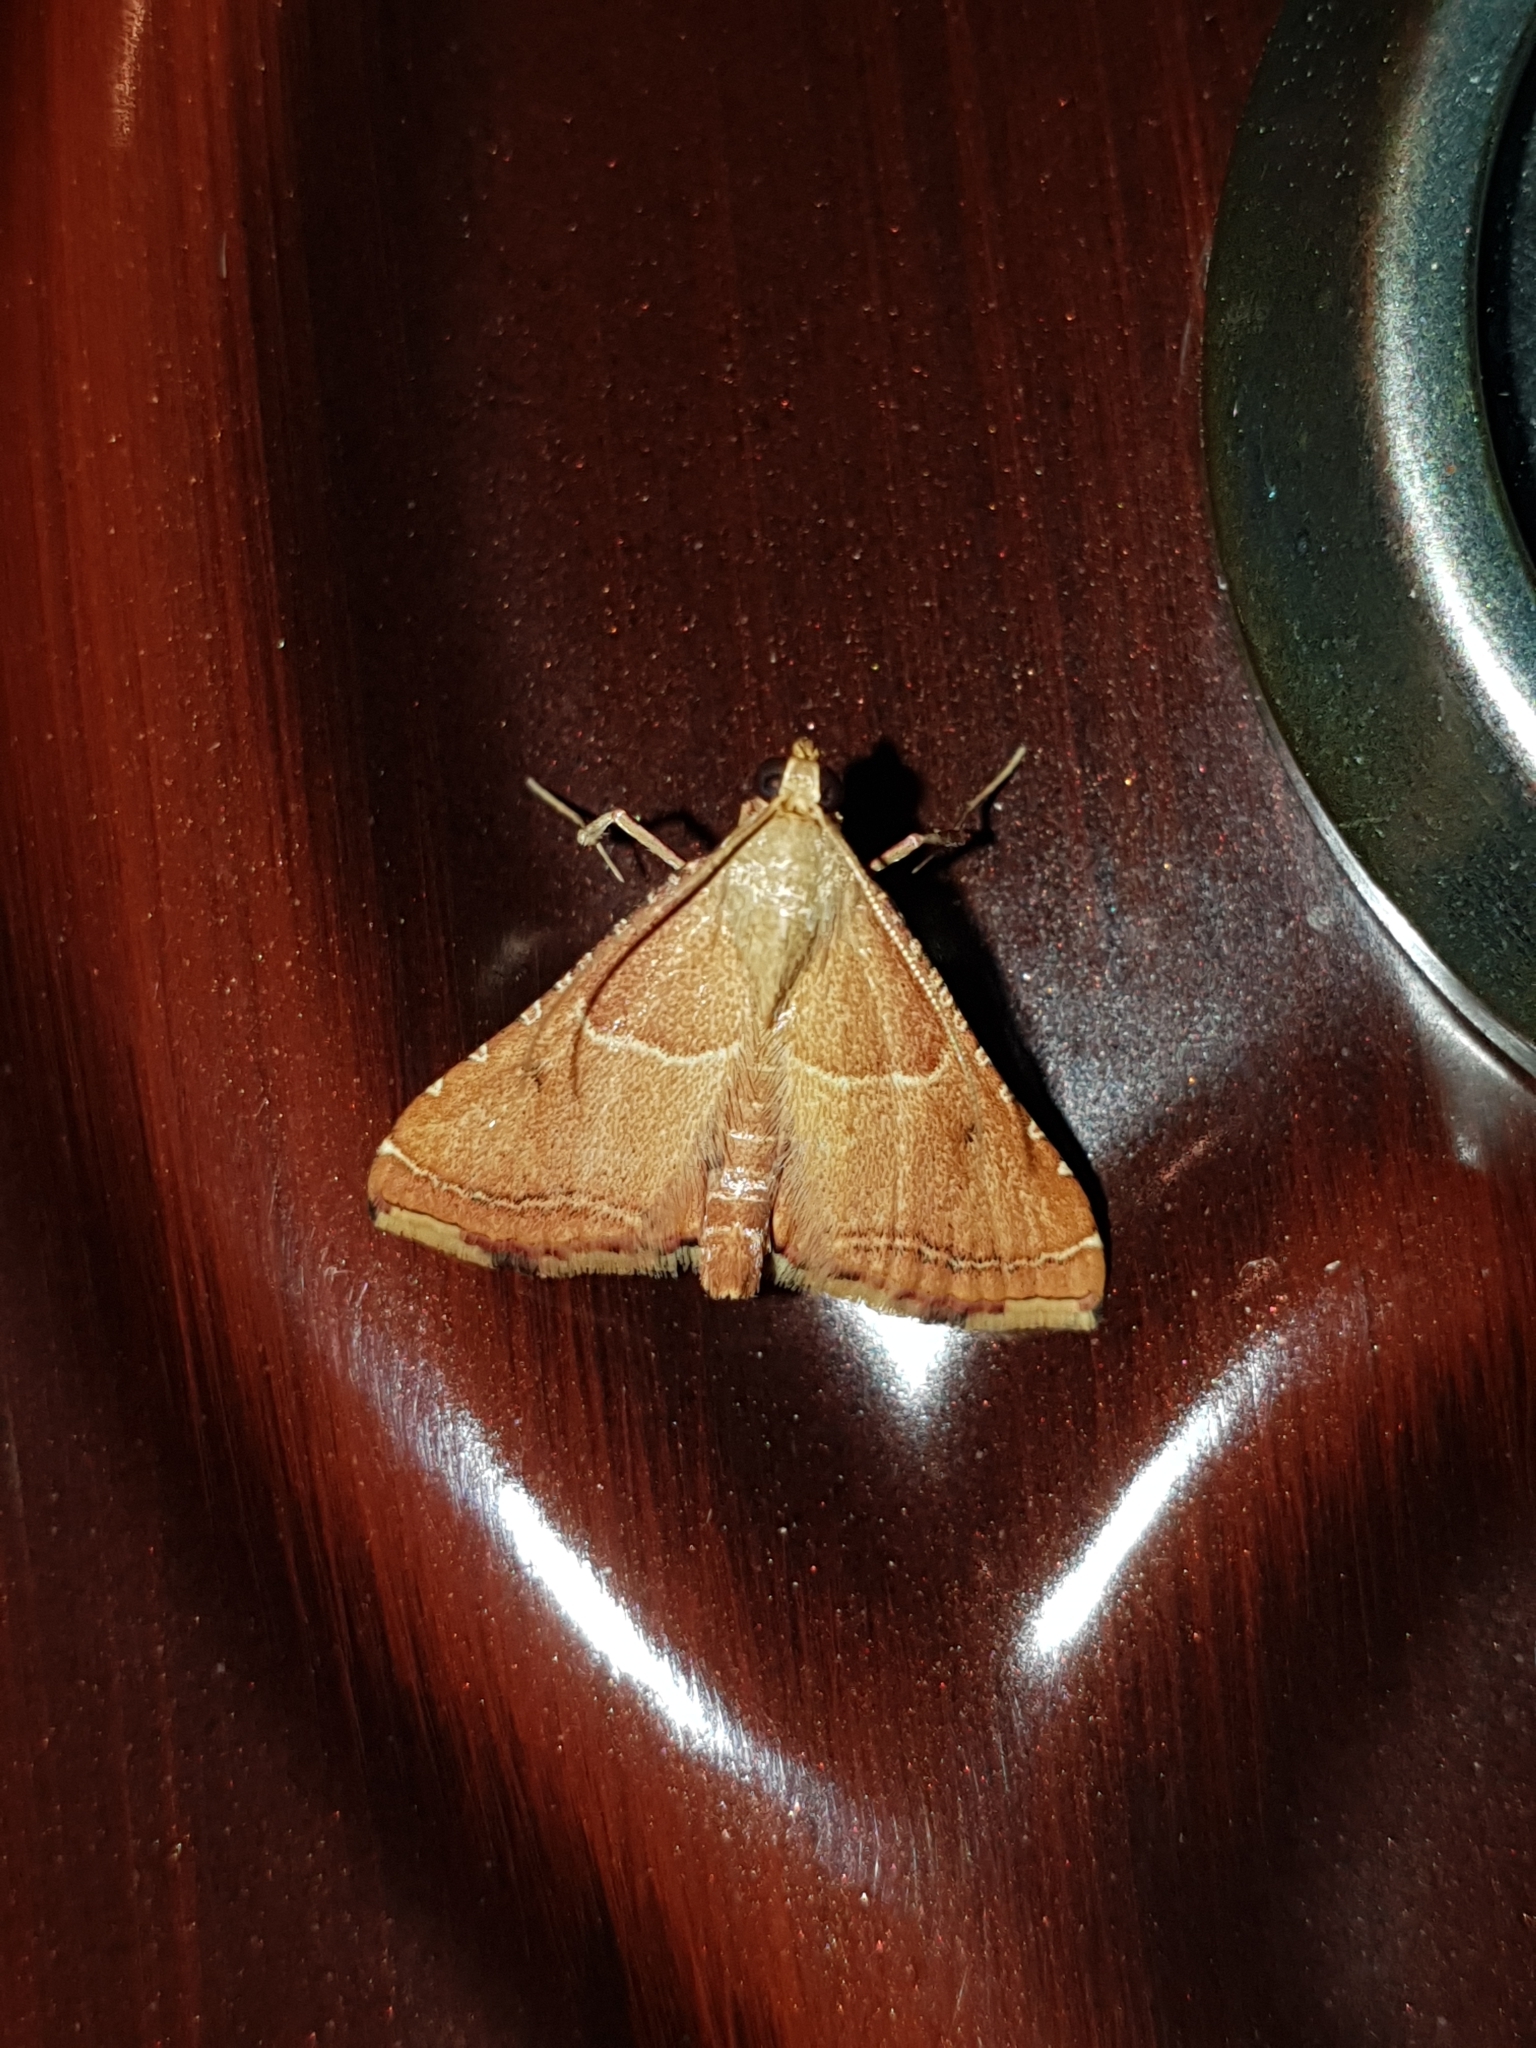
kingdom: Animalia
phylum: Arthropoda
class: Insecta
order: Lepidoptera
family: Pyralidae
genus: Endotricha
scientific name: Endotricha flammealis
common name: Rosy tabby
